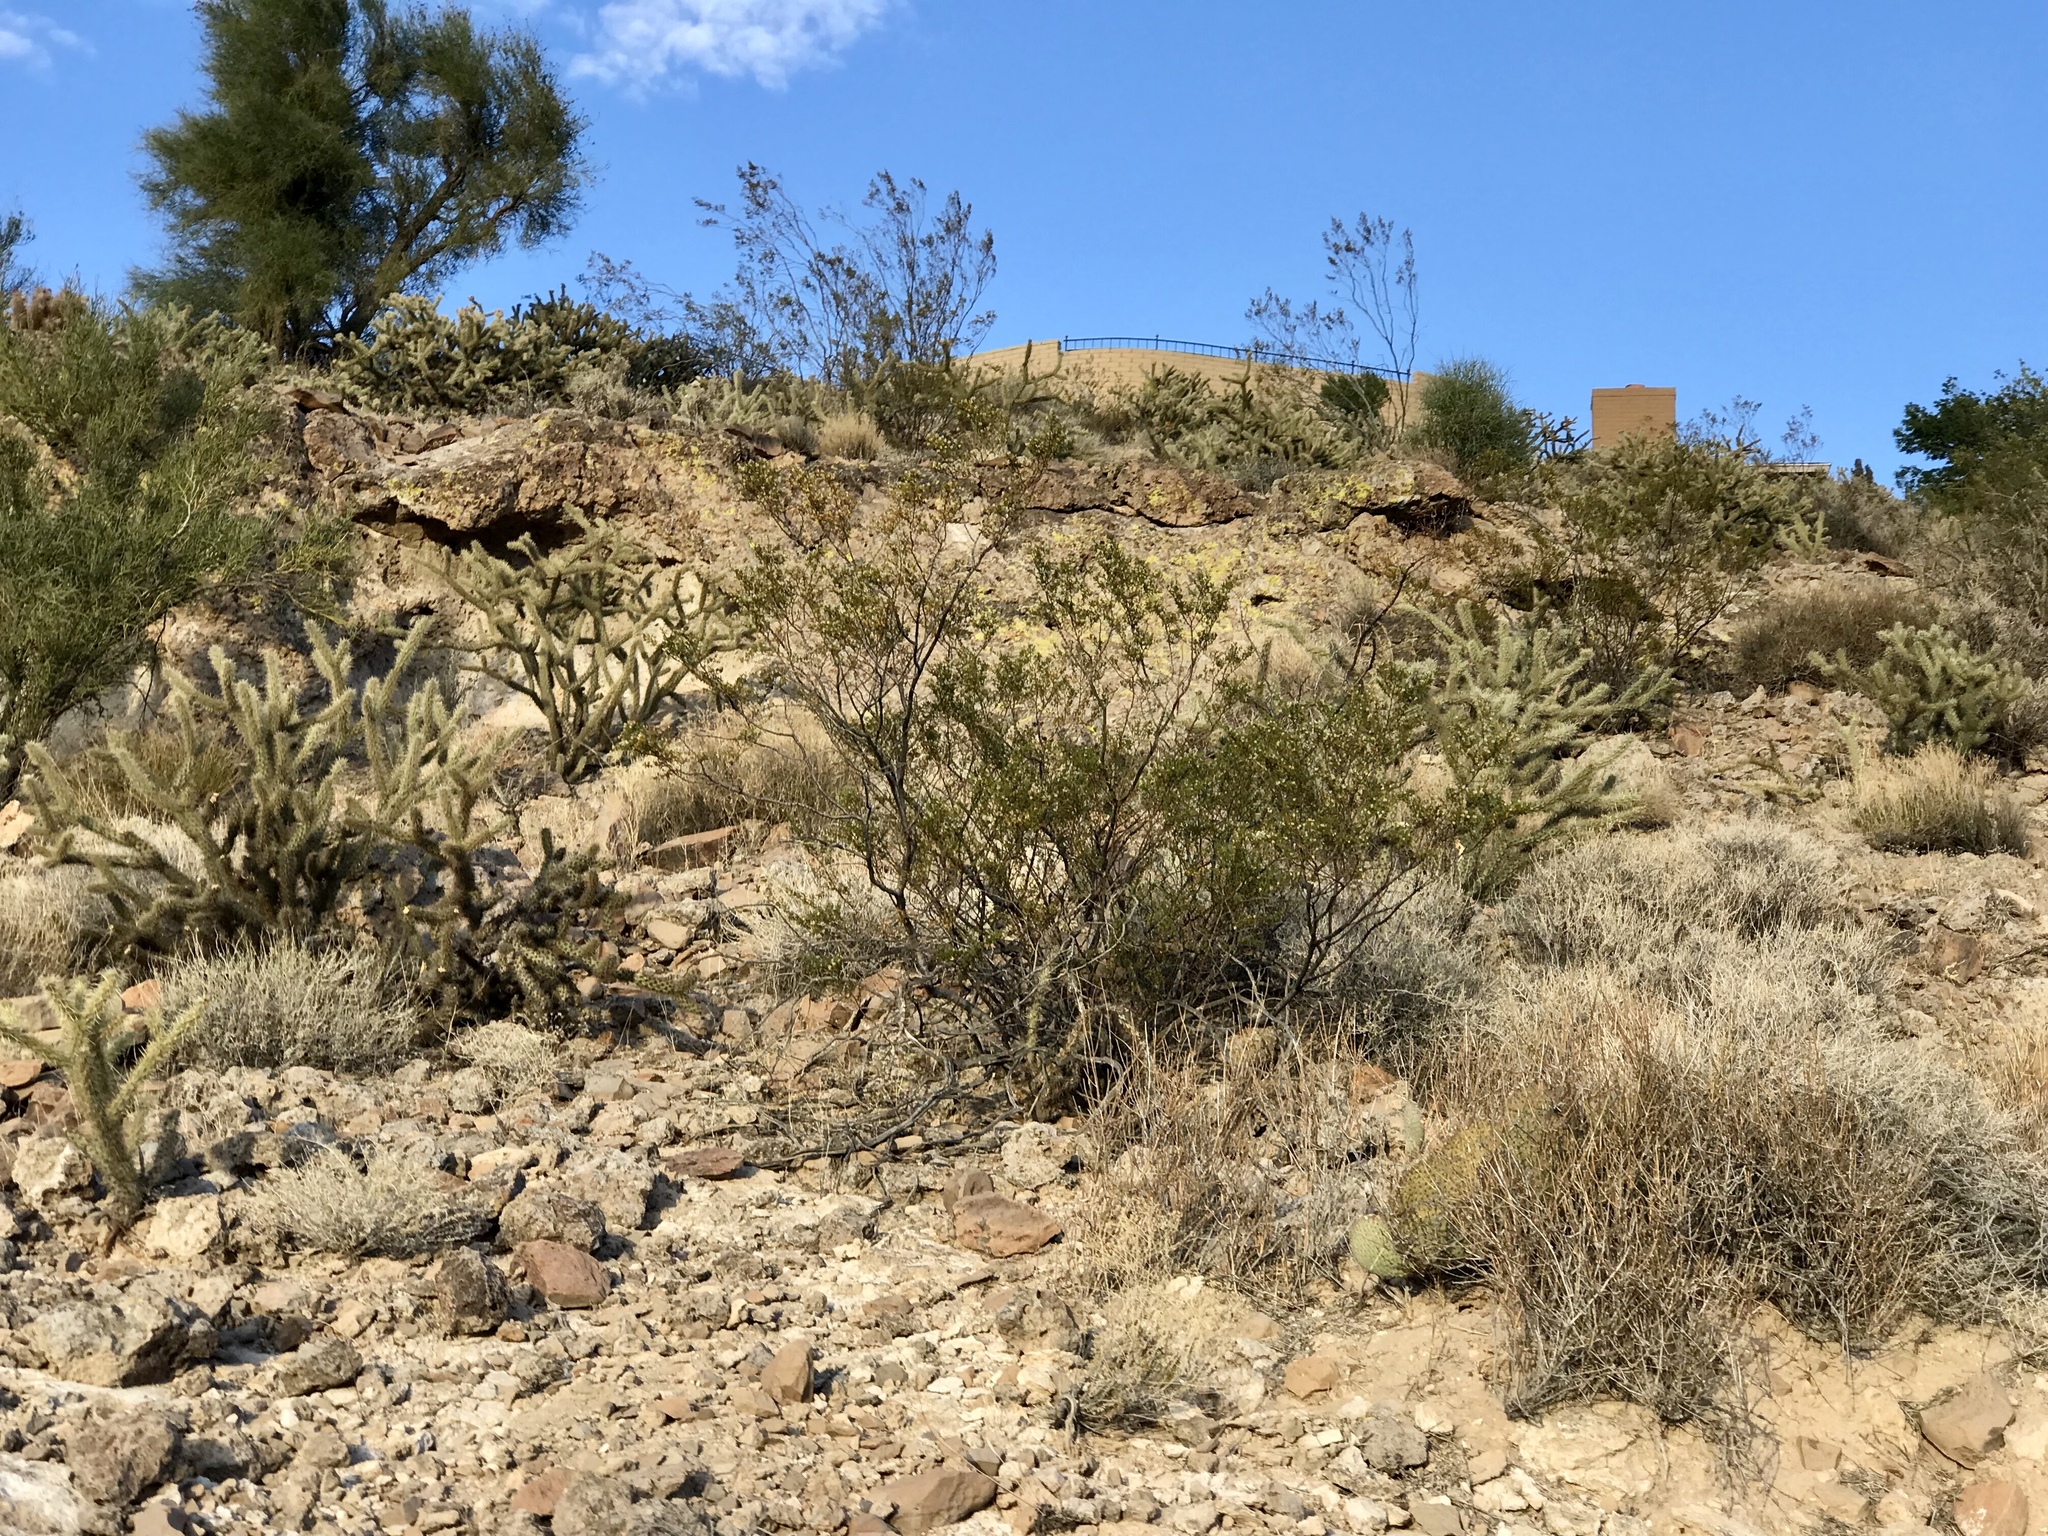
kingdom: Plantae
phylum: Tracheophyta
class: Magnoliopsida
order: Zygophyllales
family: Zygophyllaceae
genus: Larrea
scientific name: Larrea tridentata
